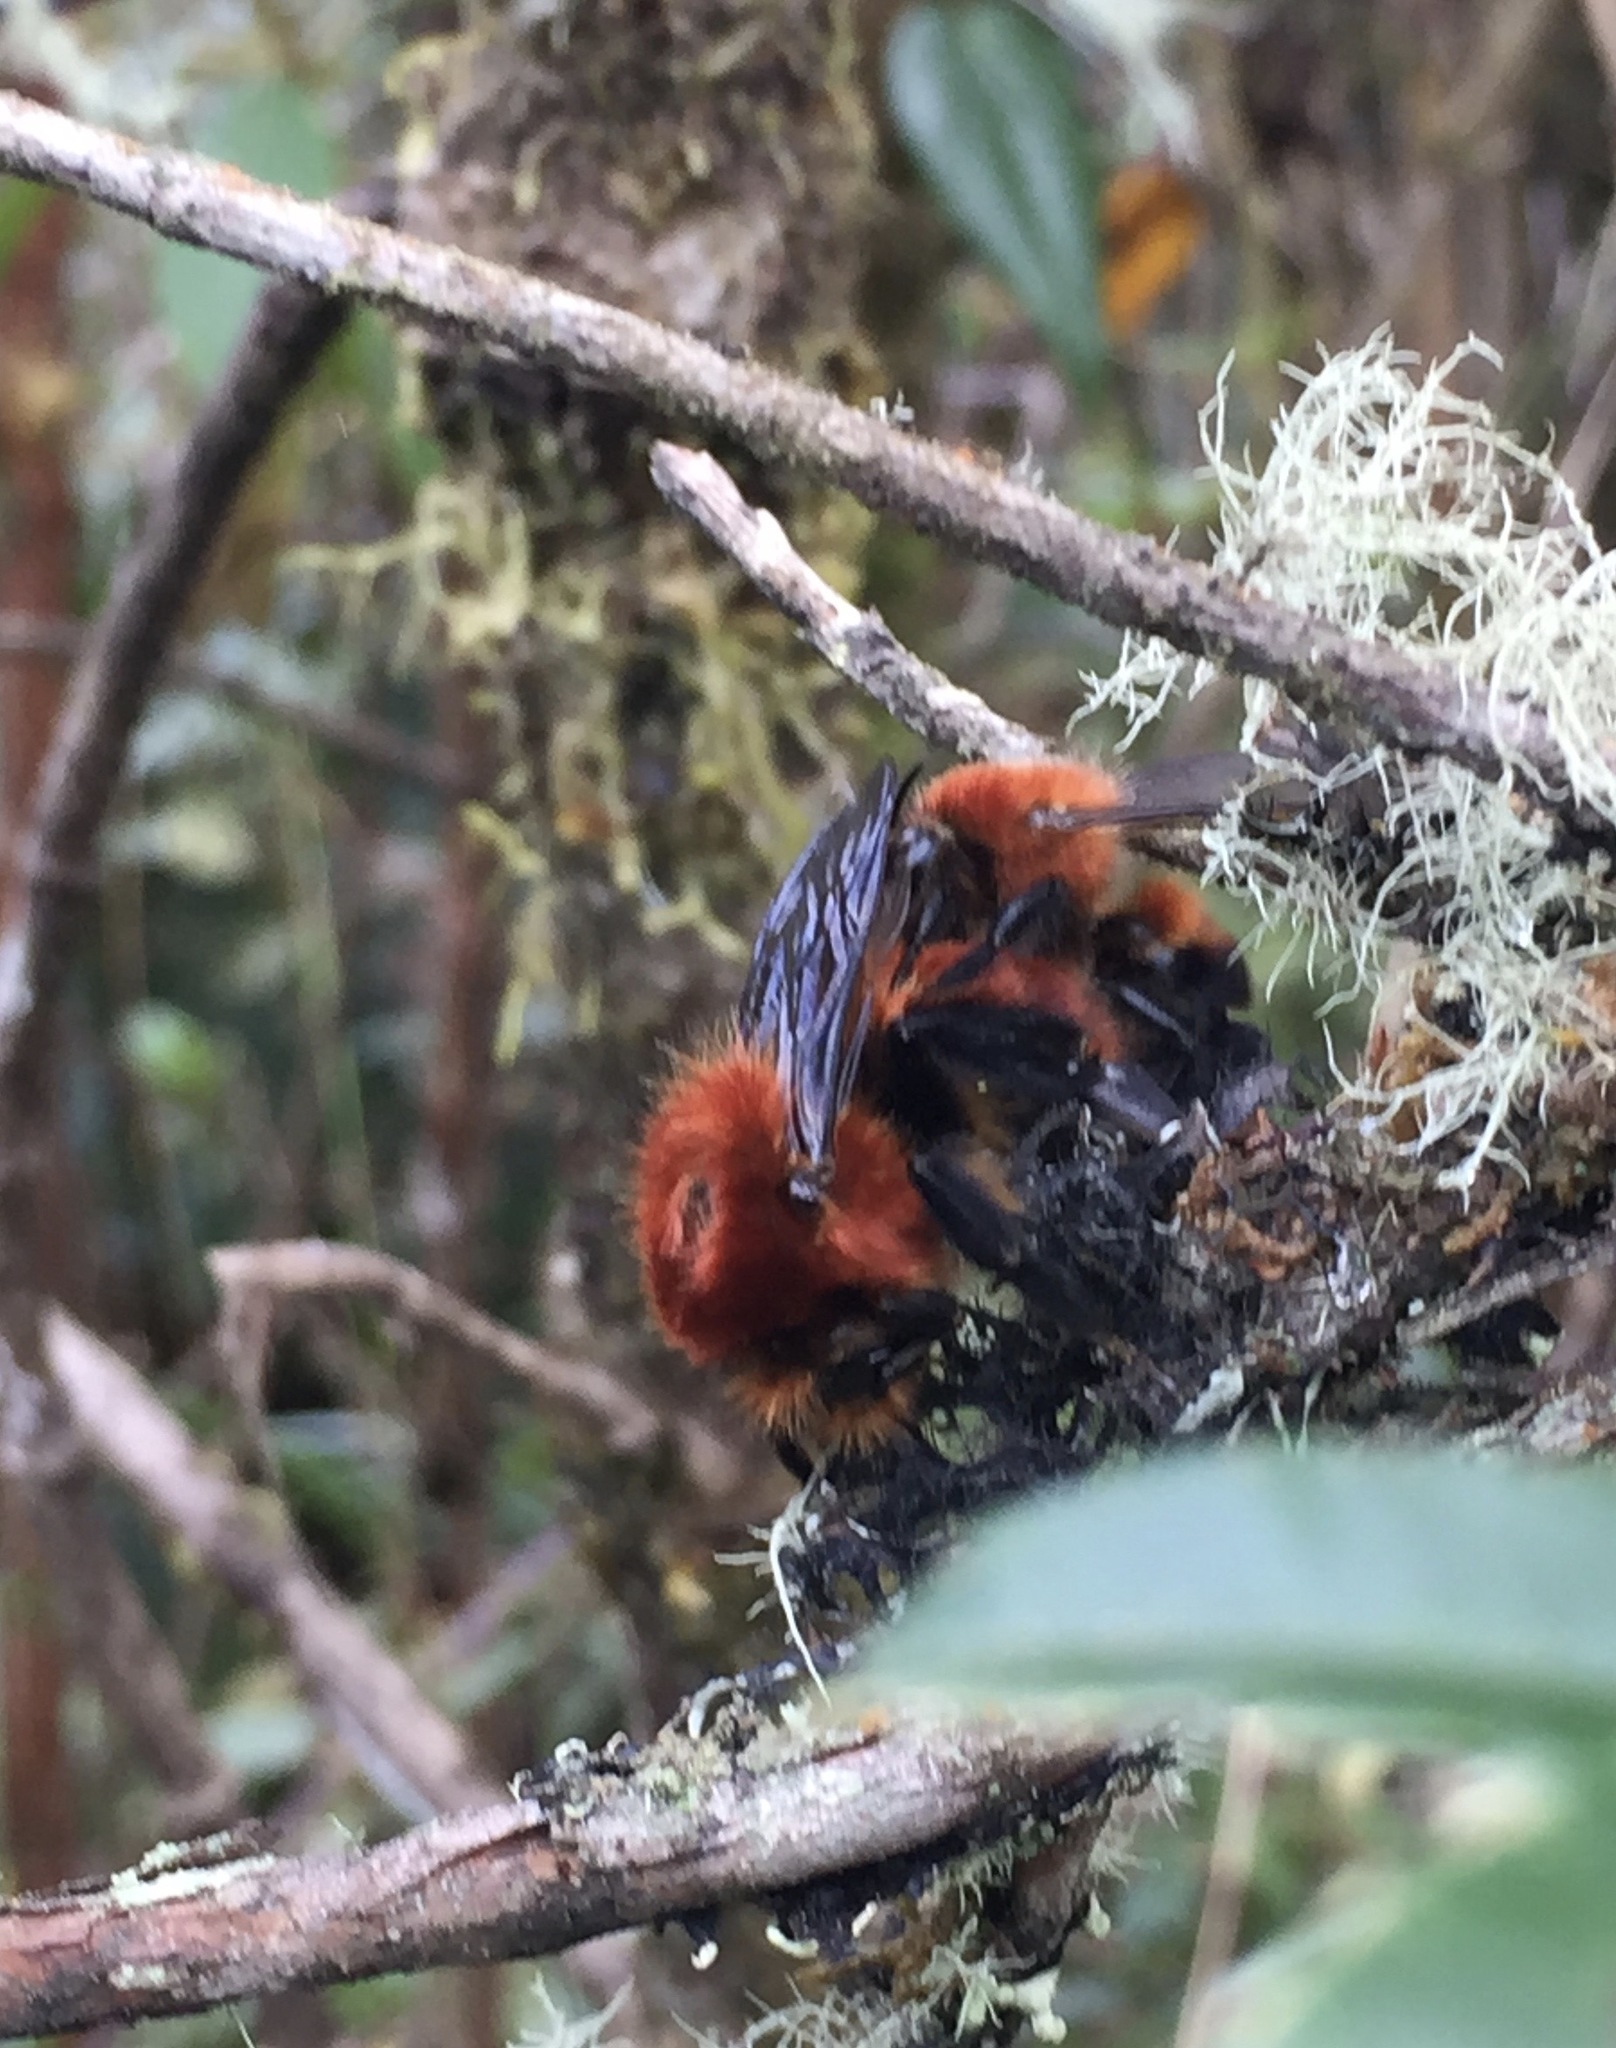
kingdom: Animalia
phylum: Arthropoda
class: Insecta
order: Hymenoptera
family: Apidae
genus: Bombus
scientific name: Bombus rubicundus
